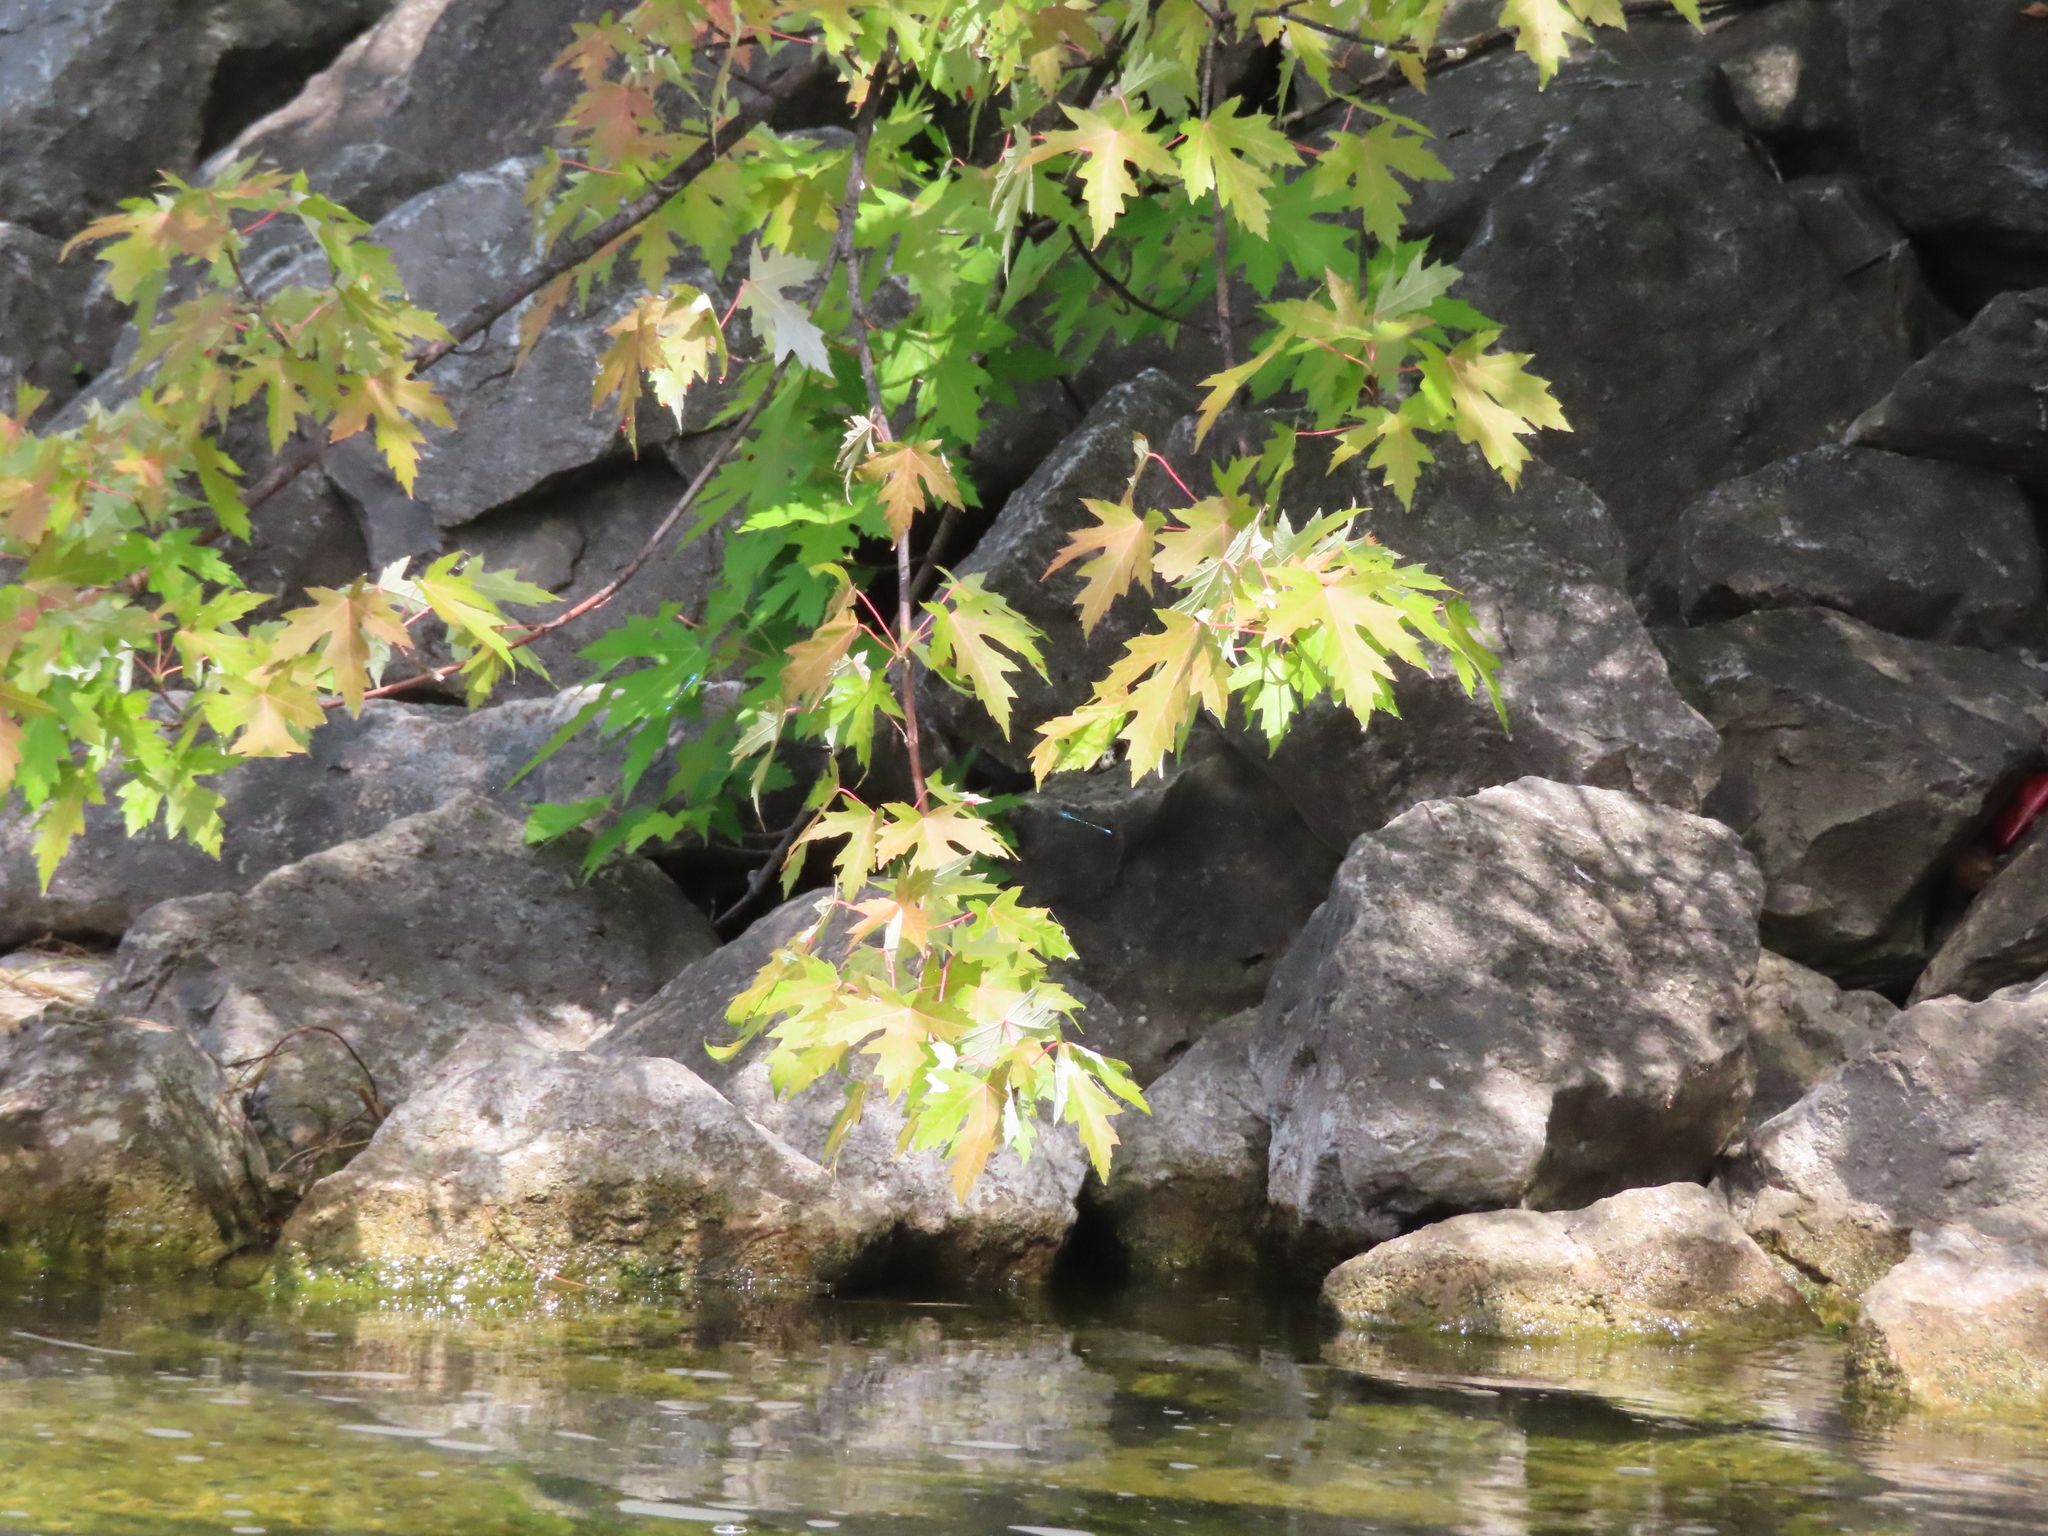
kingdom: Plantae
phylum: Tracheophyta
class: Magnoliopsida
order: Sapindales
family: Sapindaceae
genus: Acer
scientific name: Acer saccharinum
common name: Silver maple
